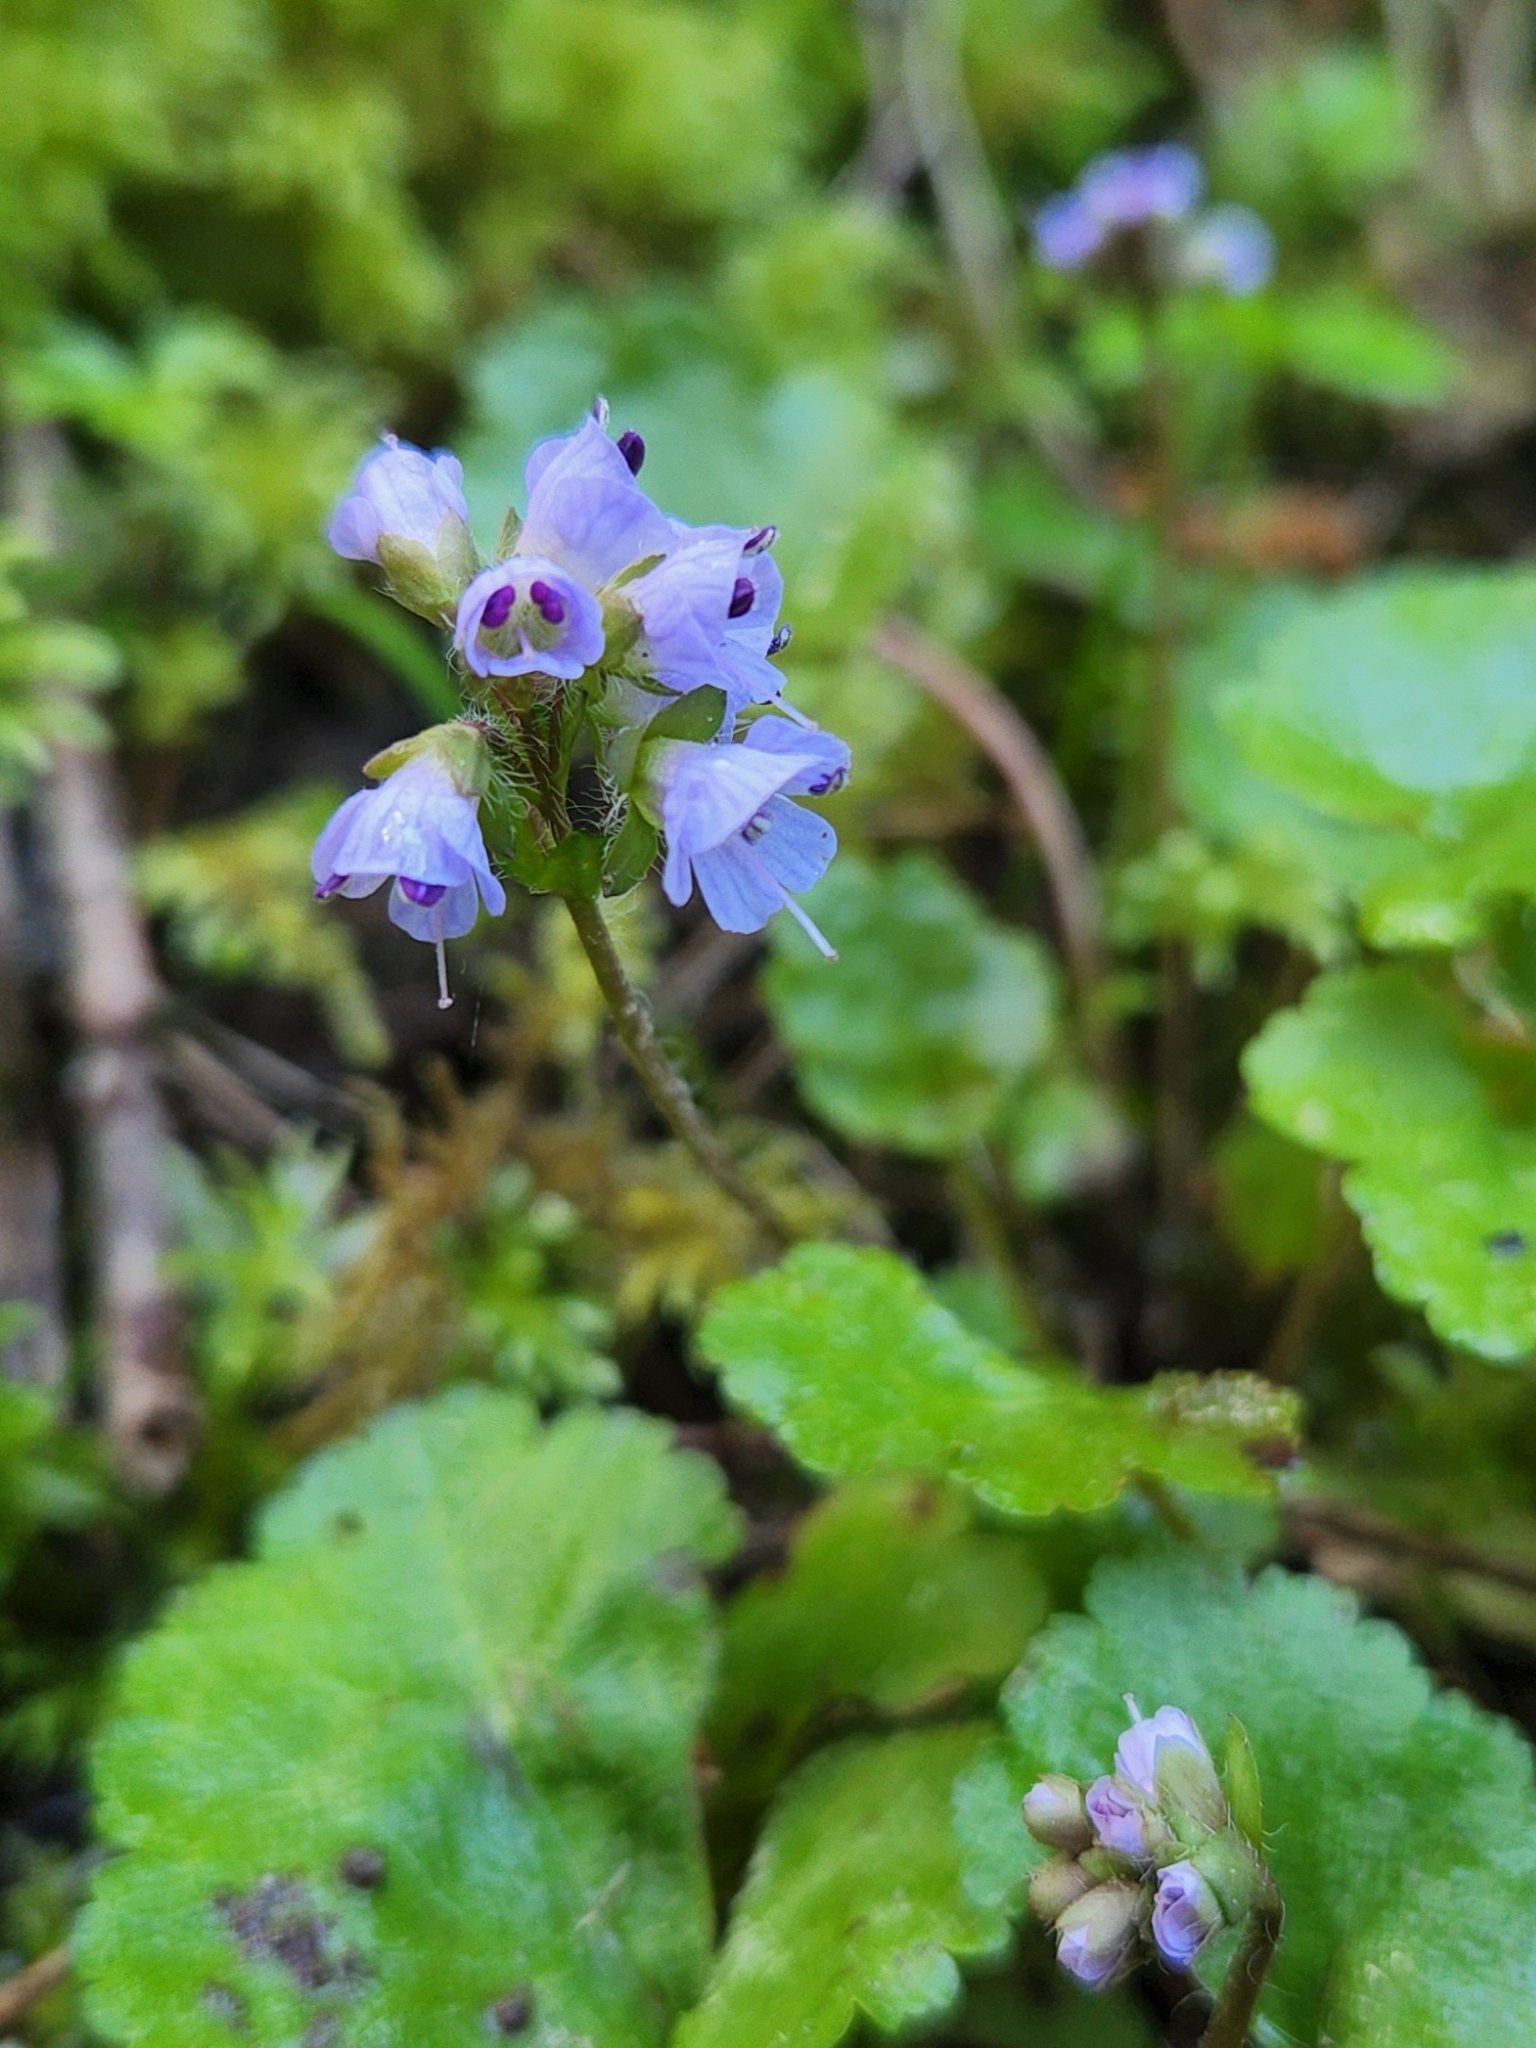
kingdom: Plantae
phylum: Tracheophyta
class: Magnoliopsida
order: Lamiales
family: Plantaginaceae
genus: Synthyris
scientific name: Synthyris reniformis
